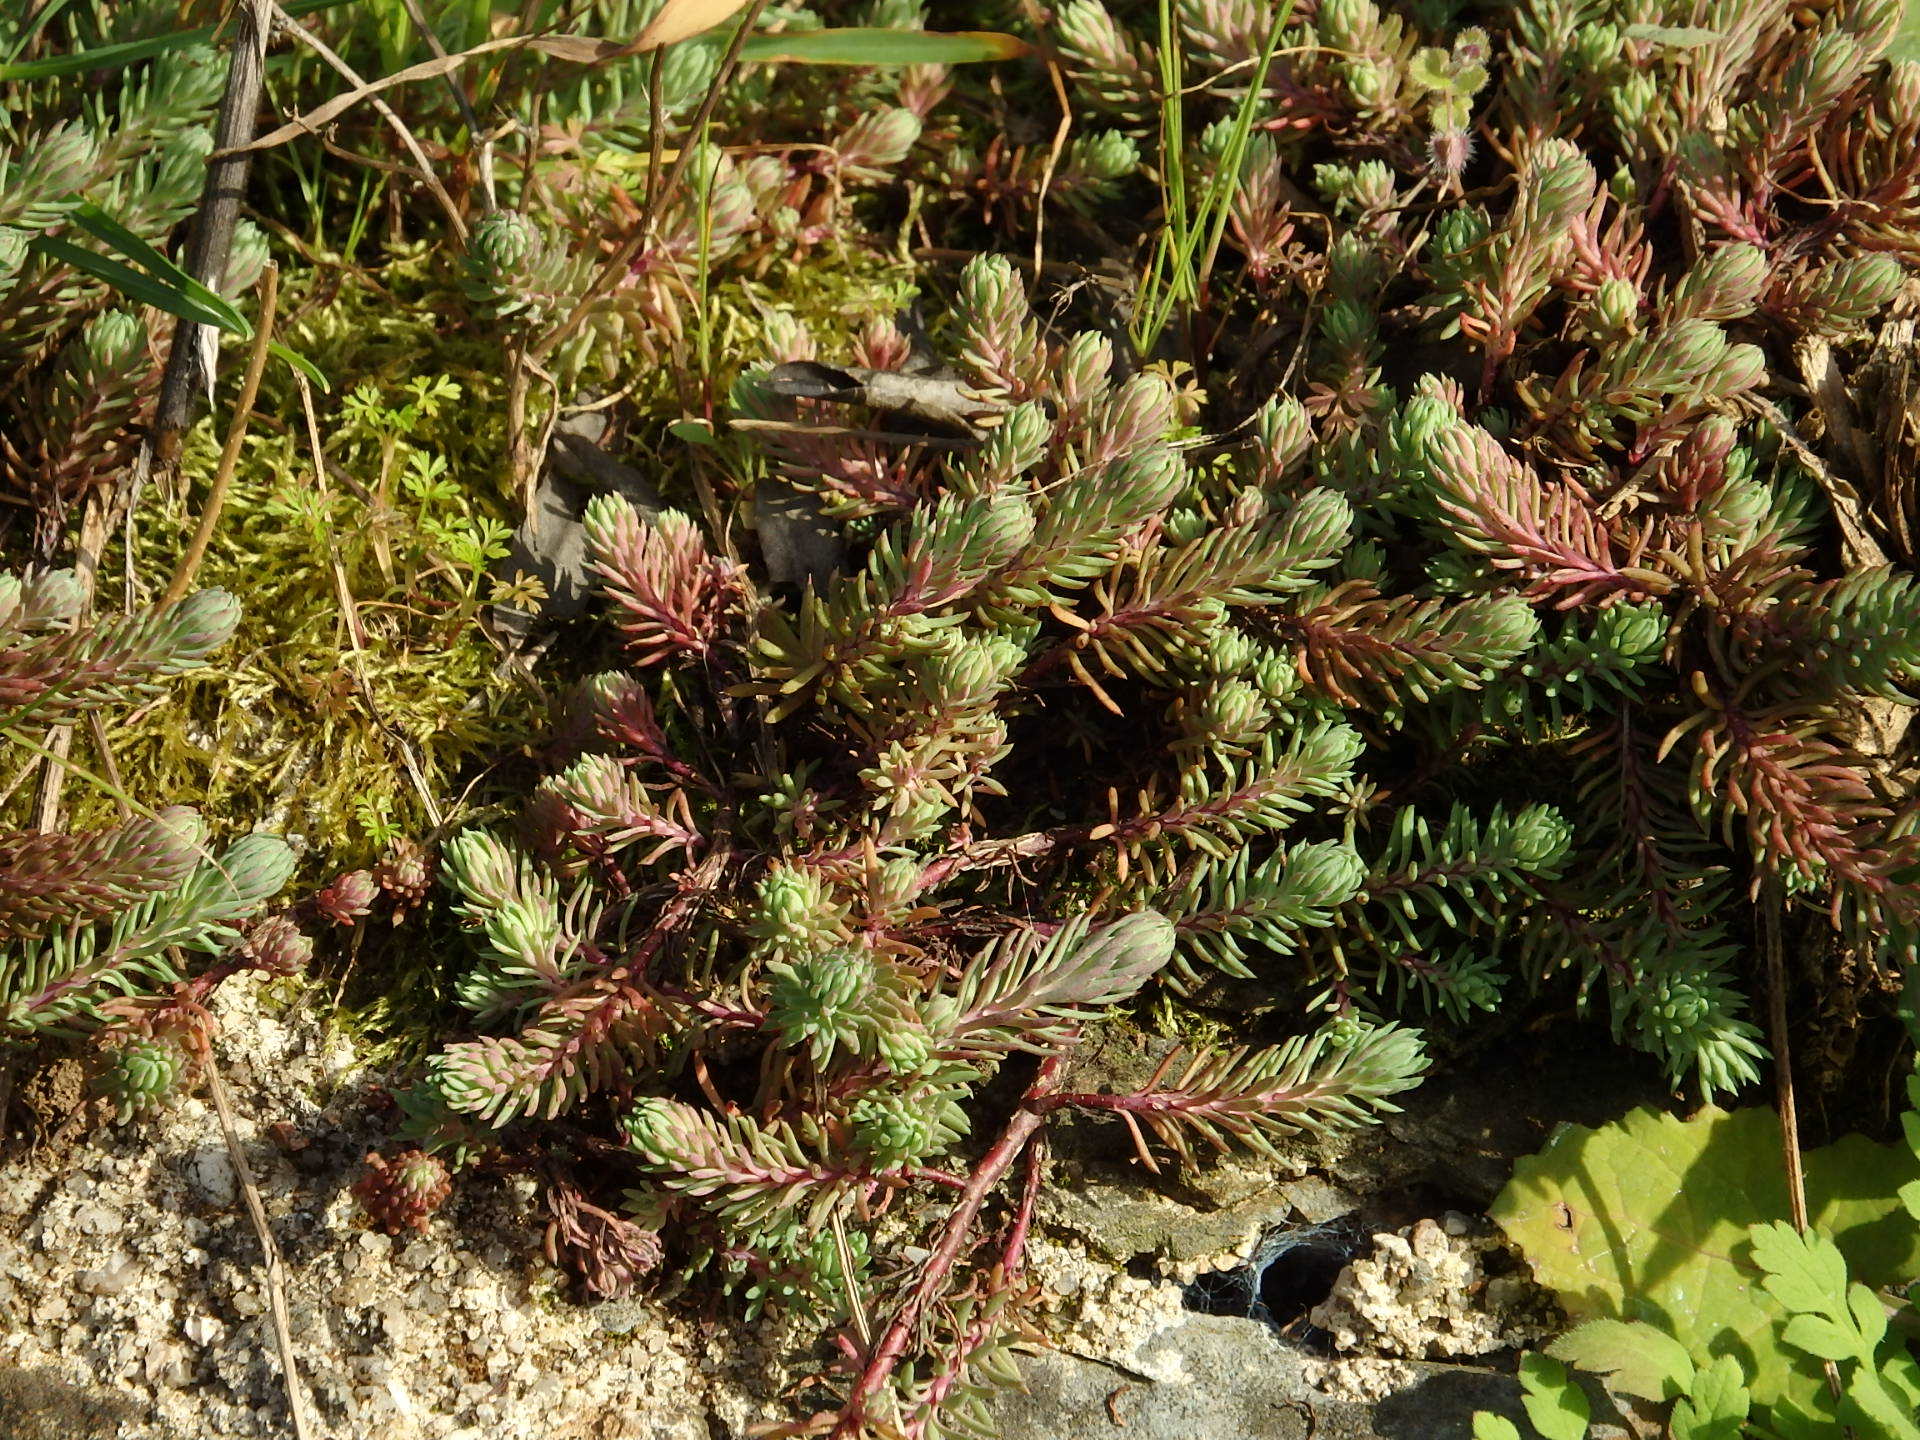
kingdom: Plantae
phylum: Tracheophyta
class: Magnoliopsida
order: Saxifragales
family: Crassulaceae
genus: Petrosedum
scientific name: Petrosedum forsterianum
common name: Forster's stonecrop
